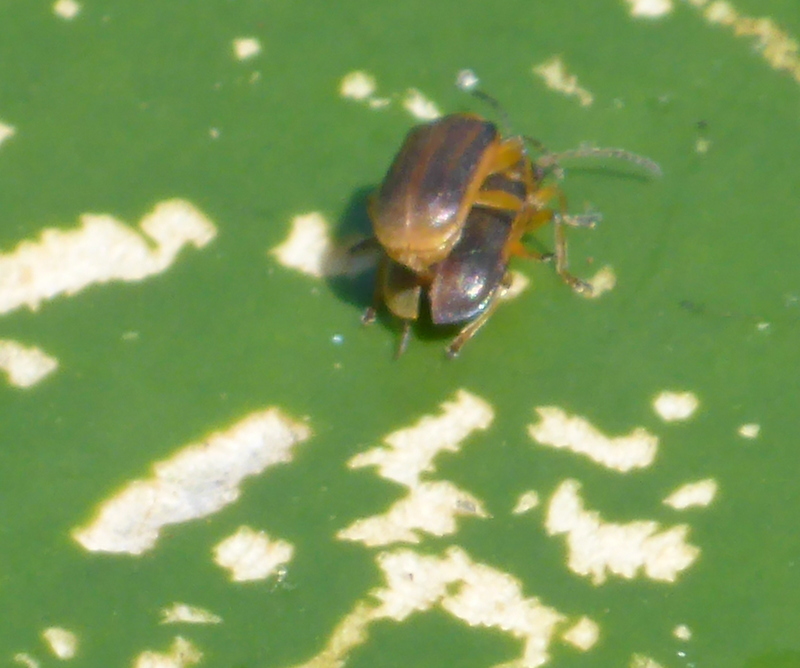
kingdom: Animalia
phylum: Arthropoda
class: Insecta
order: Coleoptera
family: Chrysomelidae
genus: Galerucella
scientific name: Galerucella nymphaeae
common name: Leaf beetle
